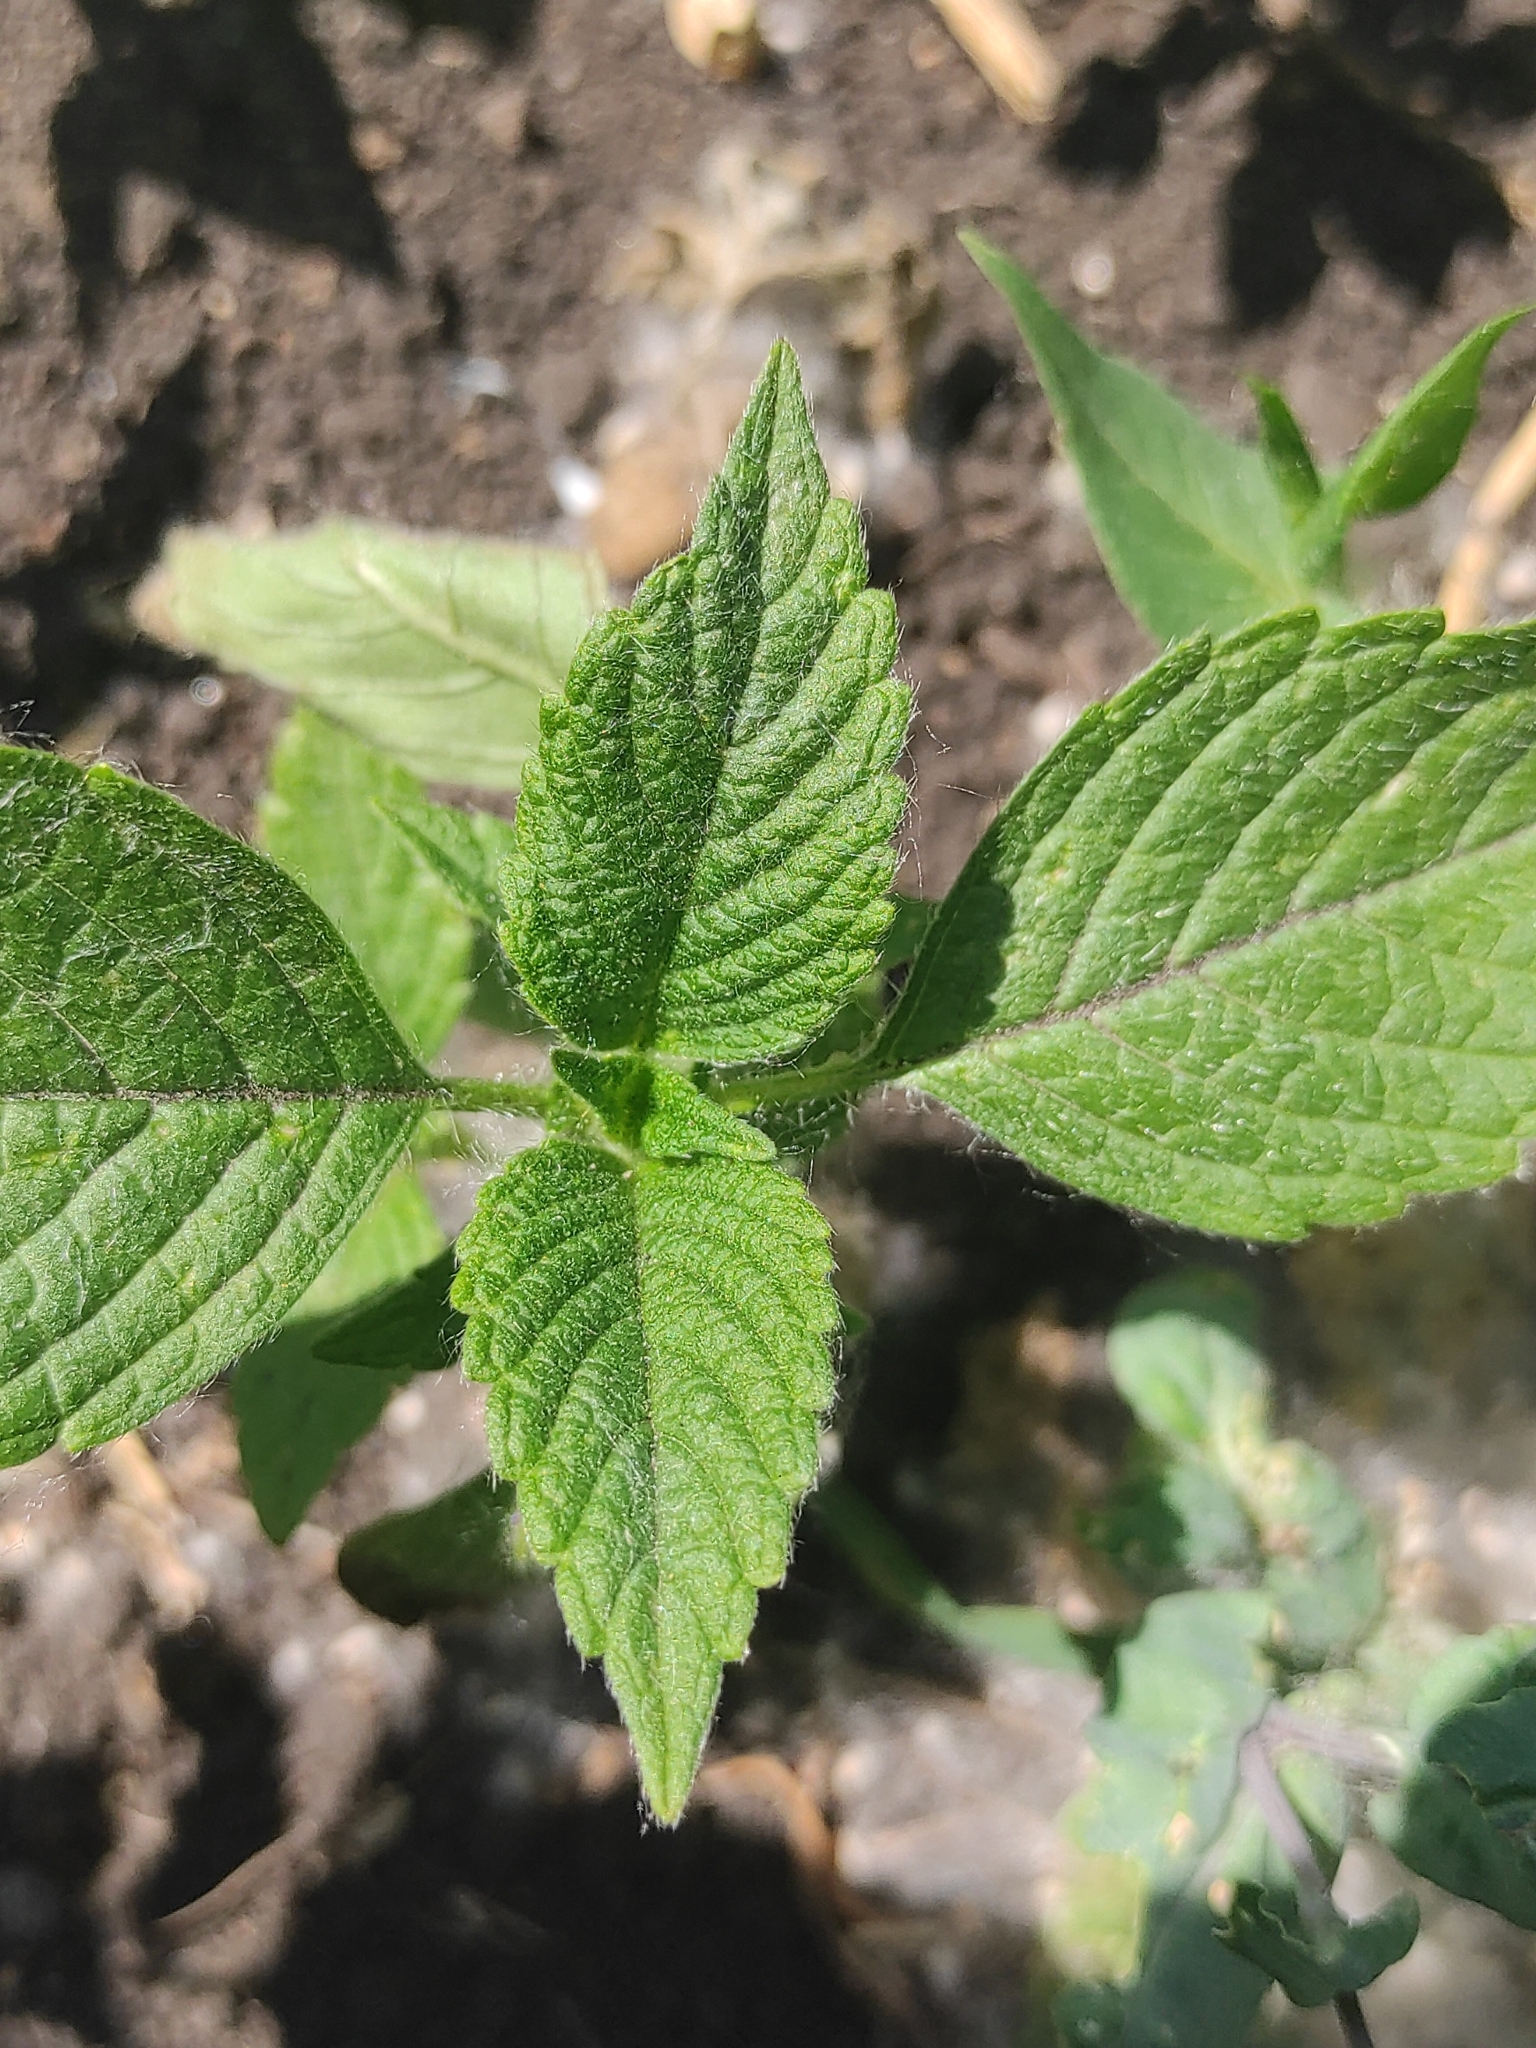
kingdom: Plantae
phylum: Tracheophyta
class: Magnoliopsida
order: Lamiales
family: Lamiaceae
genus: Galeopsis
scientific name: Galeopsis
